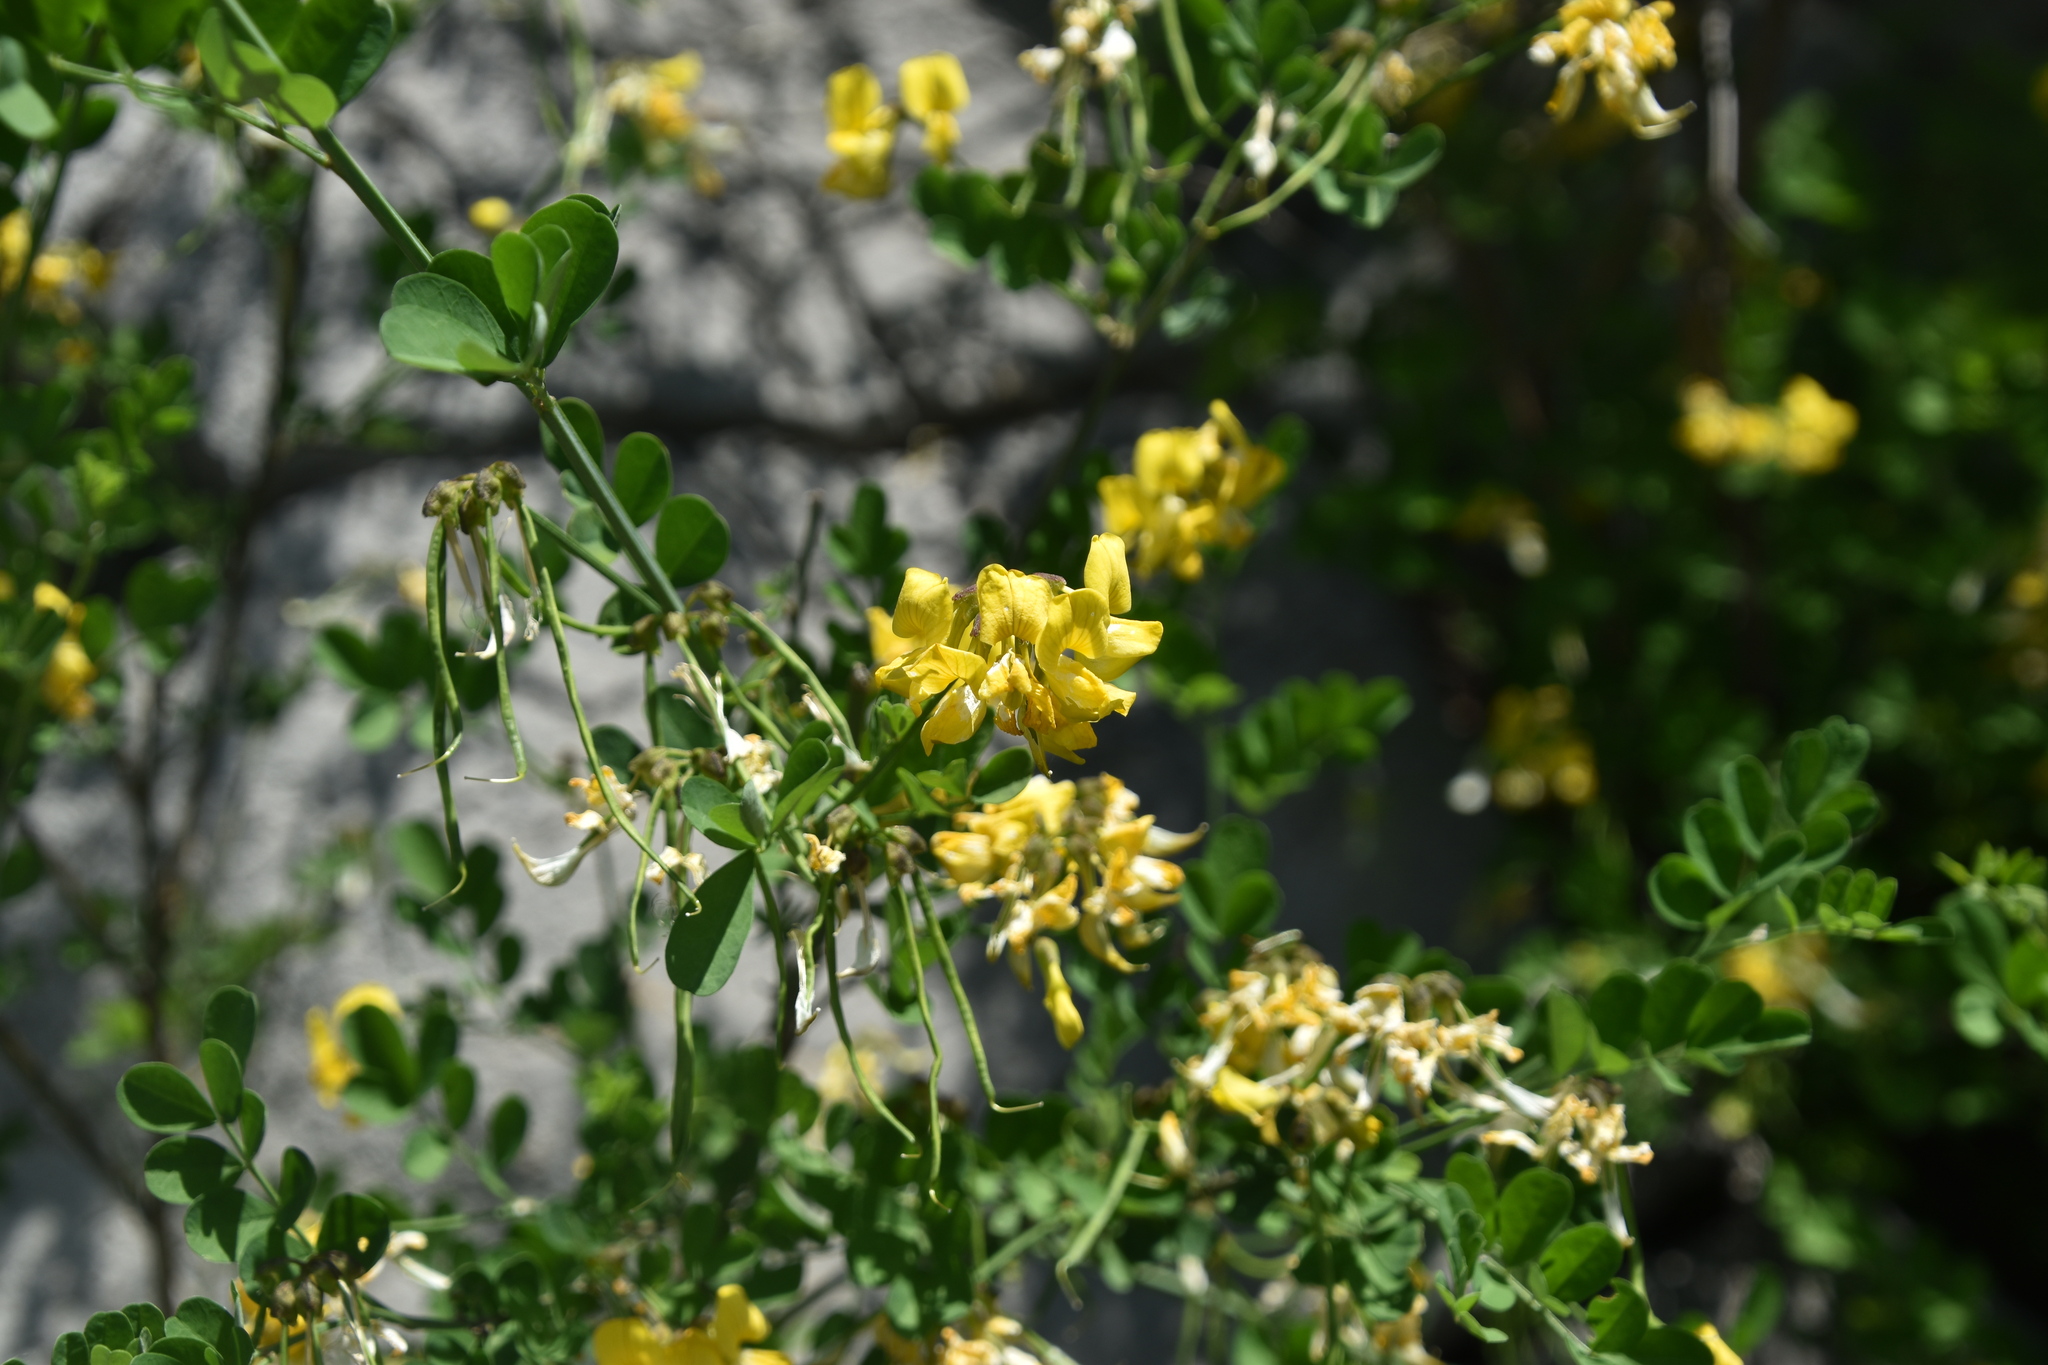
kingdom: Plantae
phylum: Tracheophyta
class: Magnoliopsida
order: Fabales
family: Fabaceae
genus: Hippocrepis
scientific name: Hippocrepis emerus
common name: Scorpion senna
